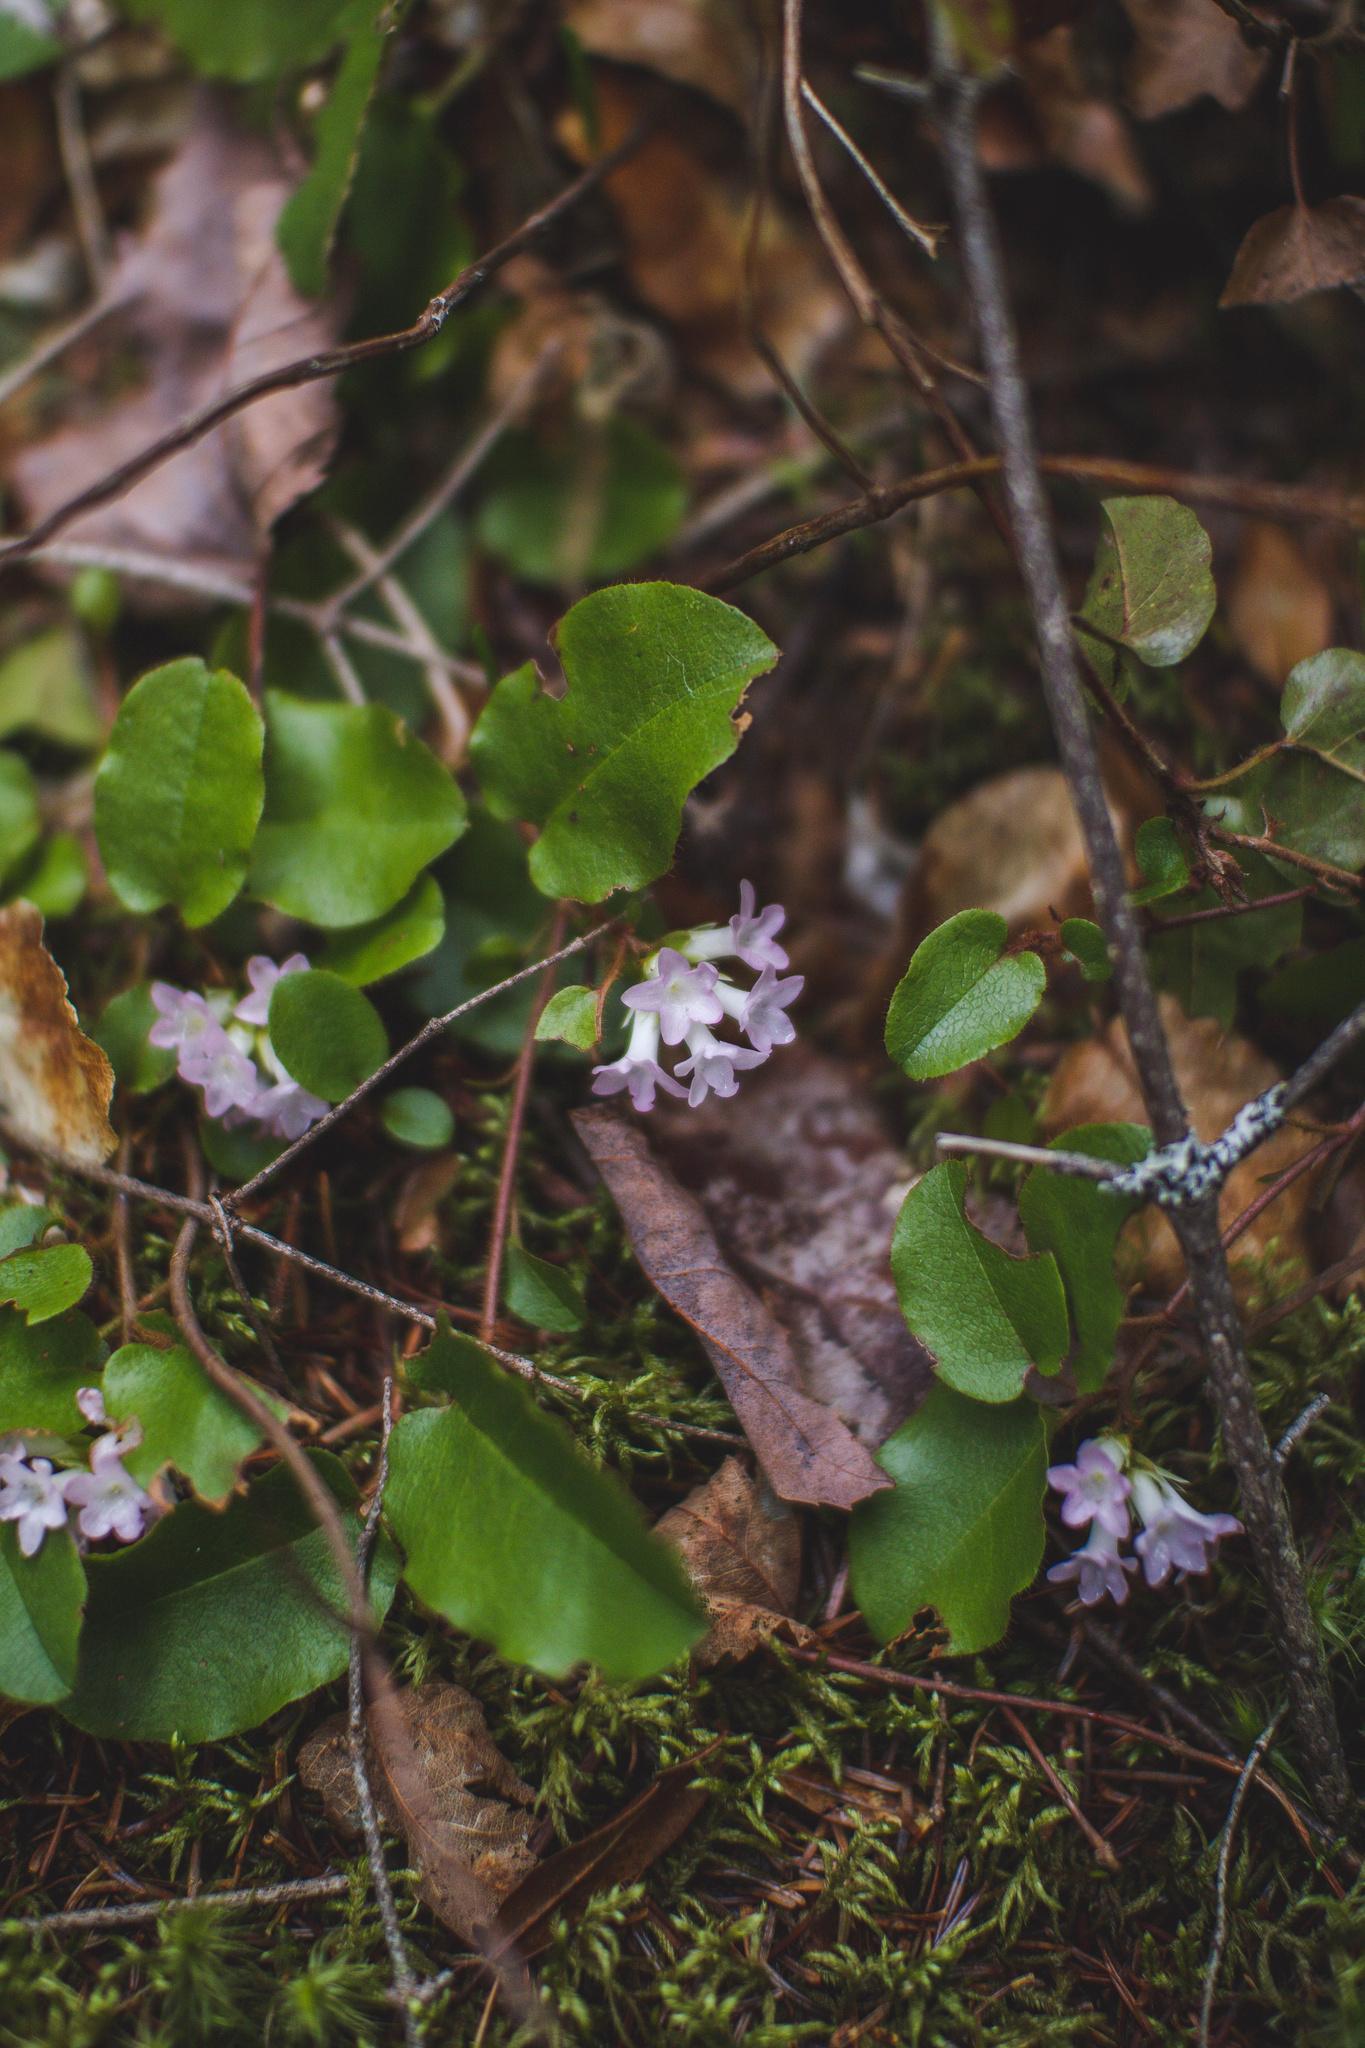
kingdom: Plantae
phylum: Tracheophyta
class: Magnoliopsida
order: Ericales
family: Ericaceae
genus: Epigaea
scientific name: Epigaea repens
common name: Gravelroot
